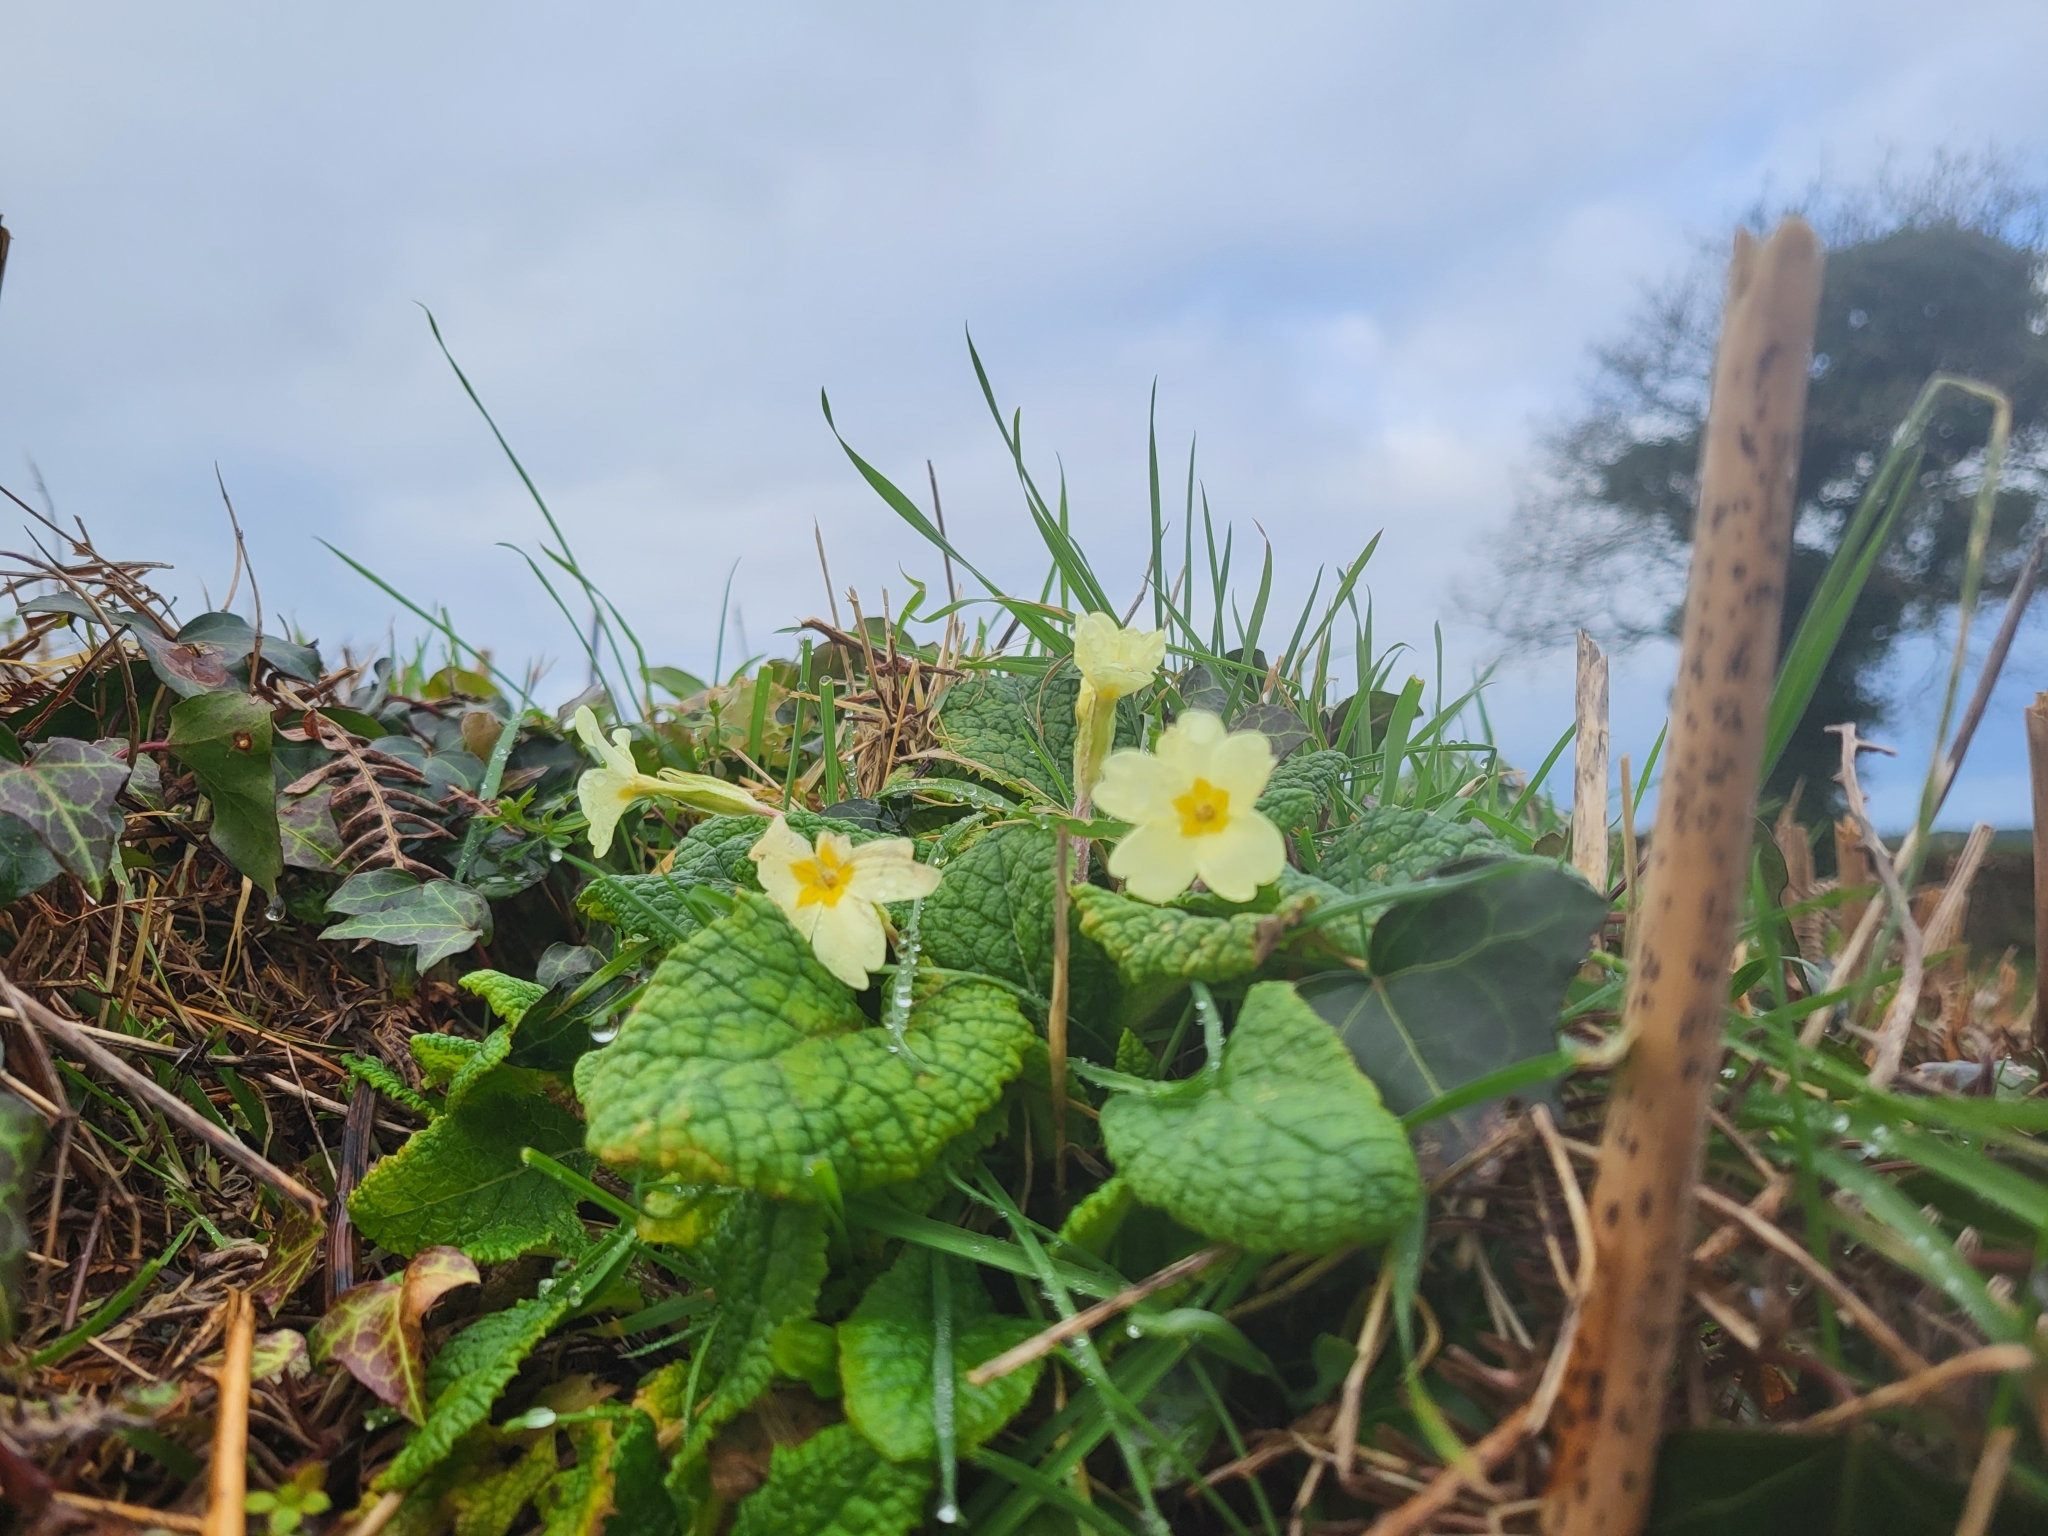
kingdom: Plantae
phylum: Tracheophyta
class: Magnoliopsida
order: Ericales
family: Primulaceae
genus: Primula
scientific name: Primula vulgaris
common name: Primrose
